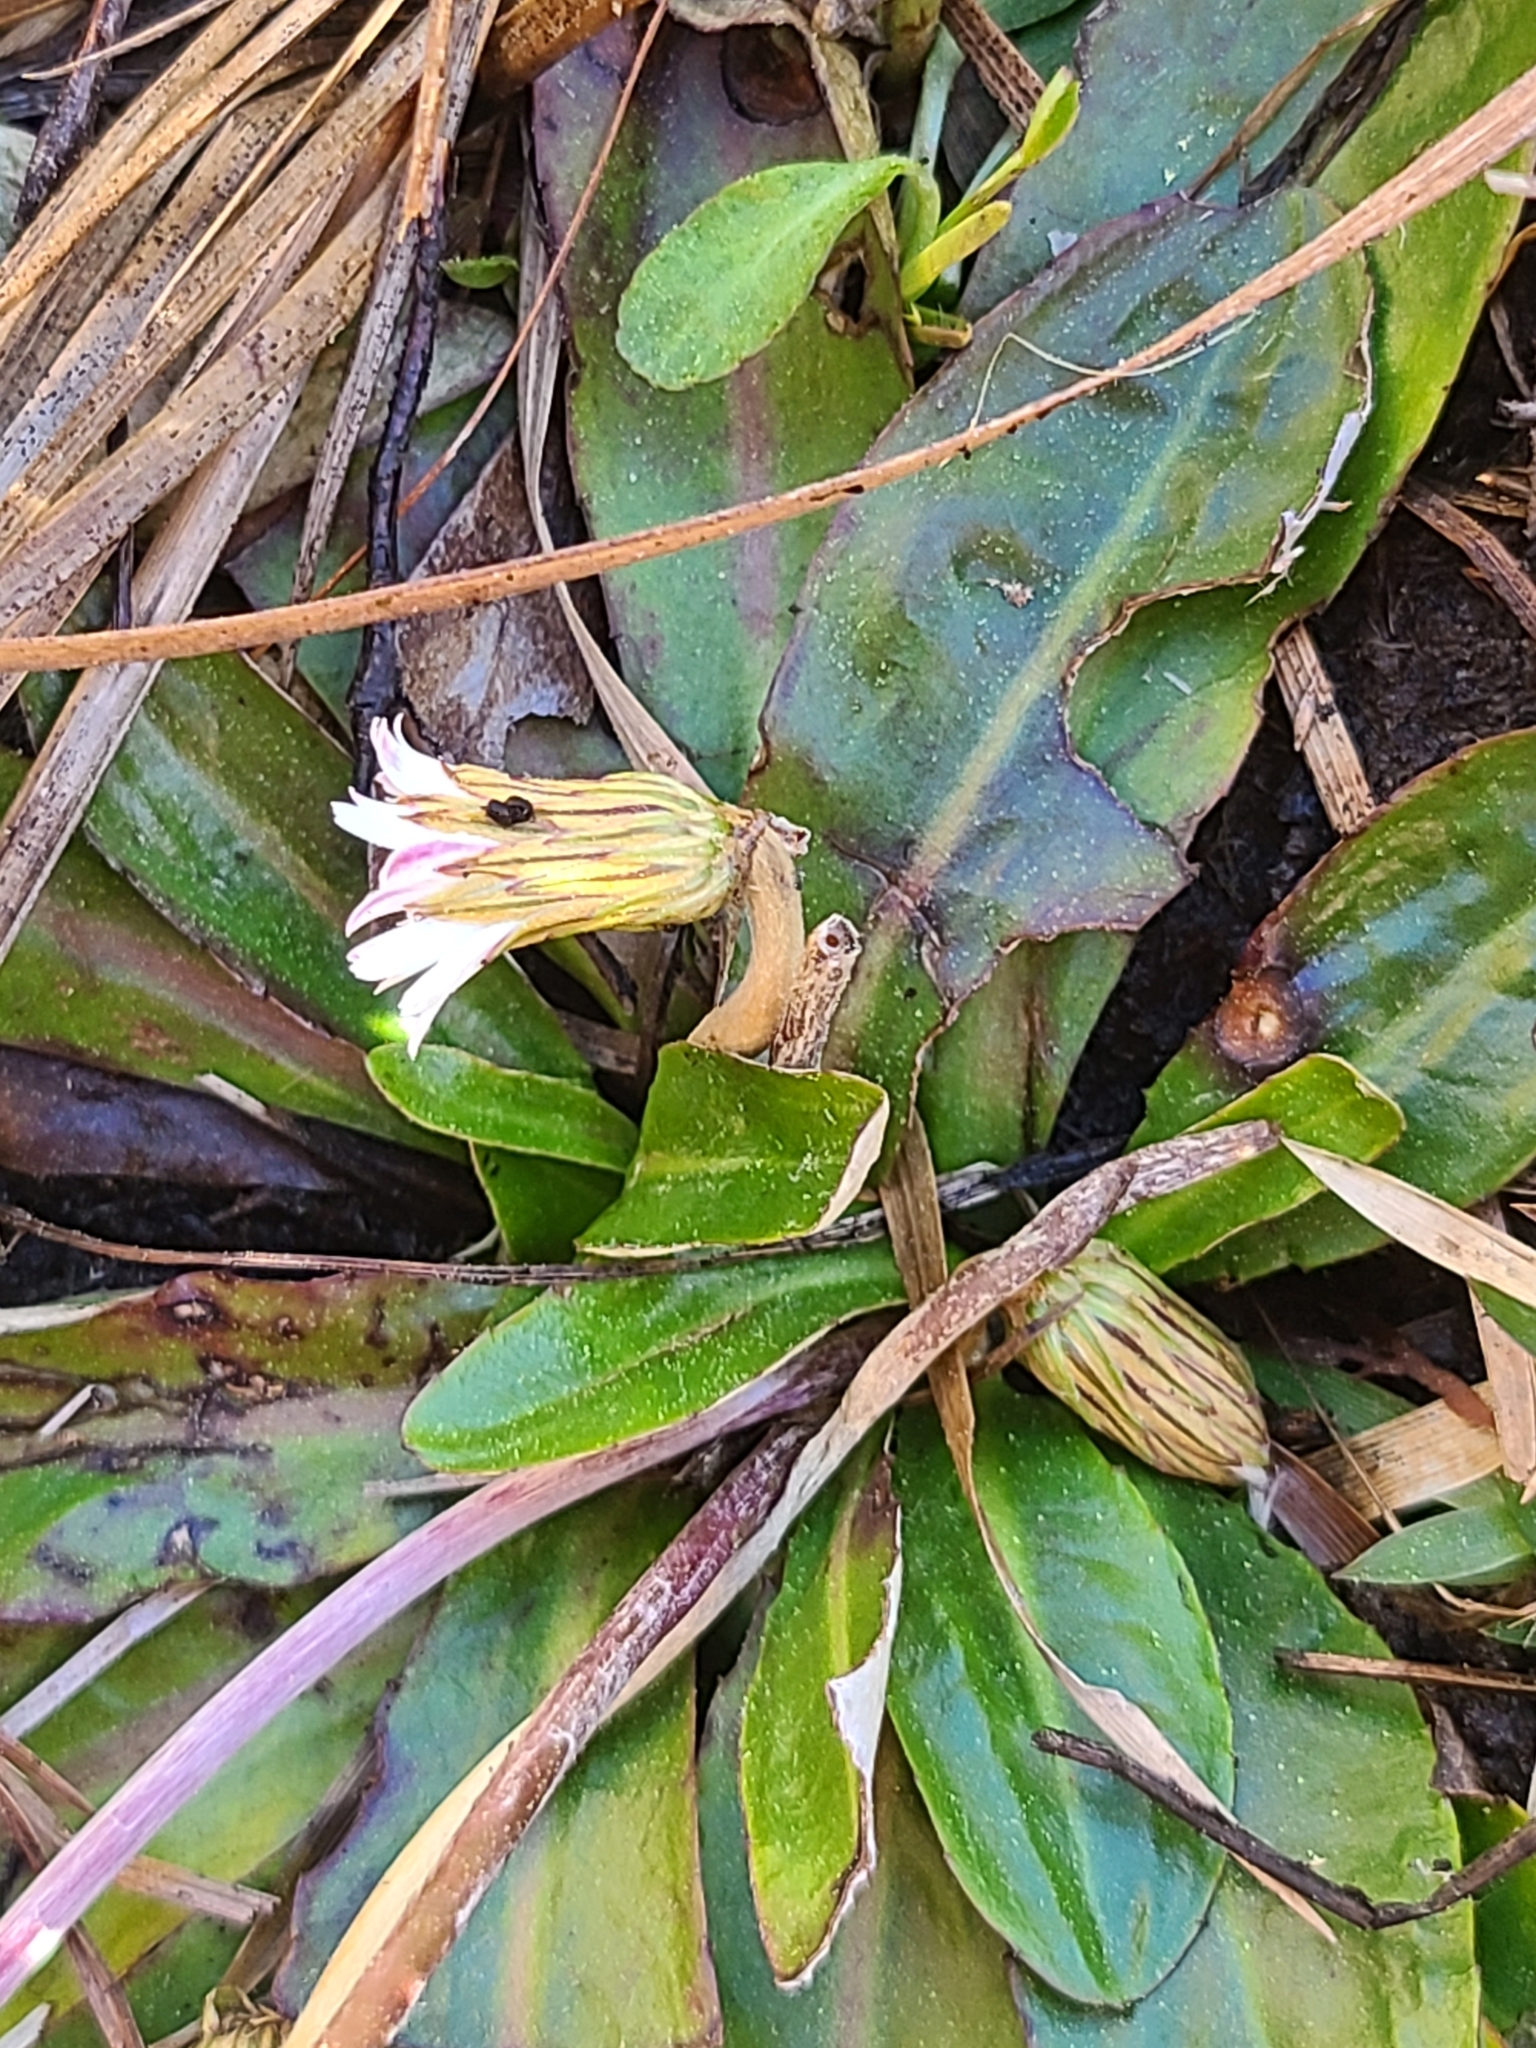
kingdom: Plantae
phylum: Tracheophyta
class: Magnoliopsida
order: Asterales
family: Asteraceae
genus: Chaptalia
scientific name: Chaptalia tomentosa
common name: Woolly sunbonnet
